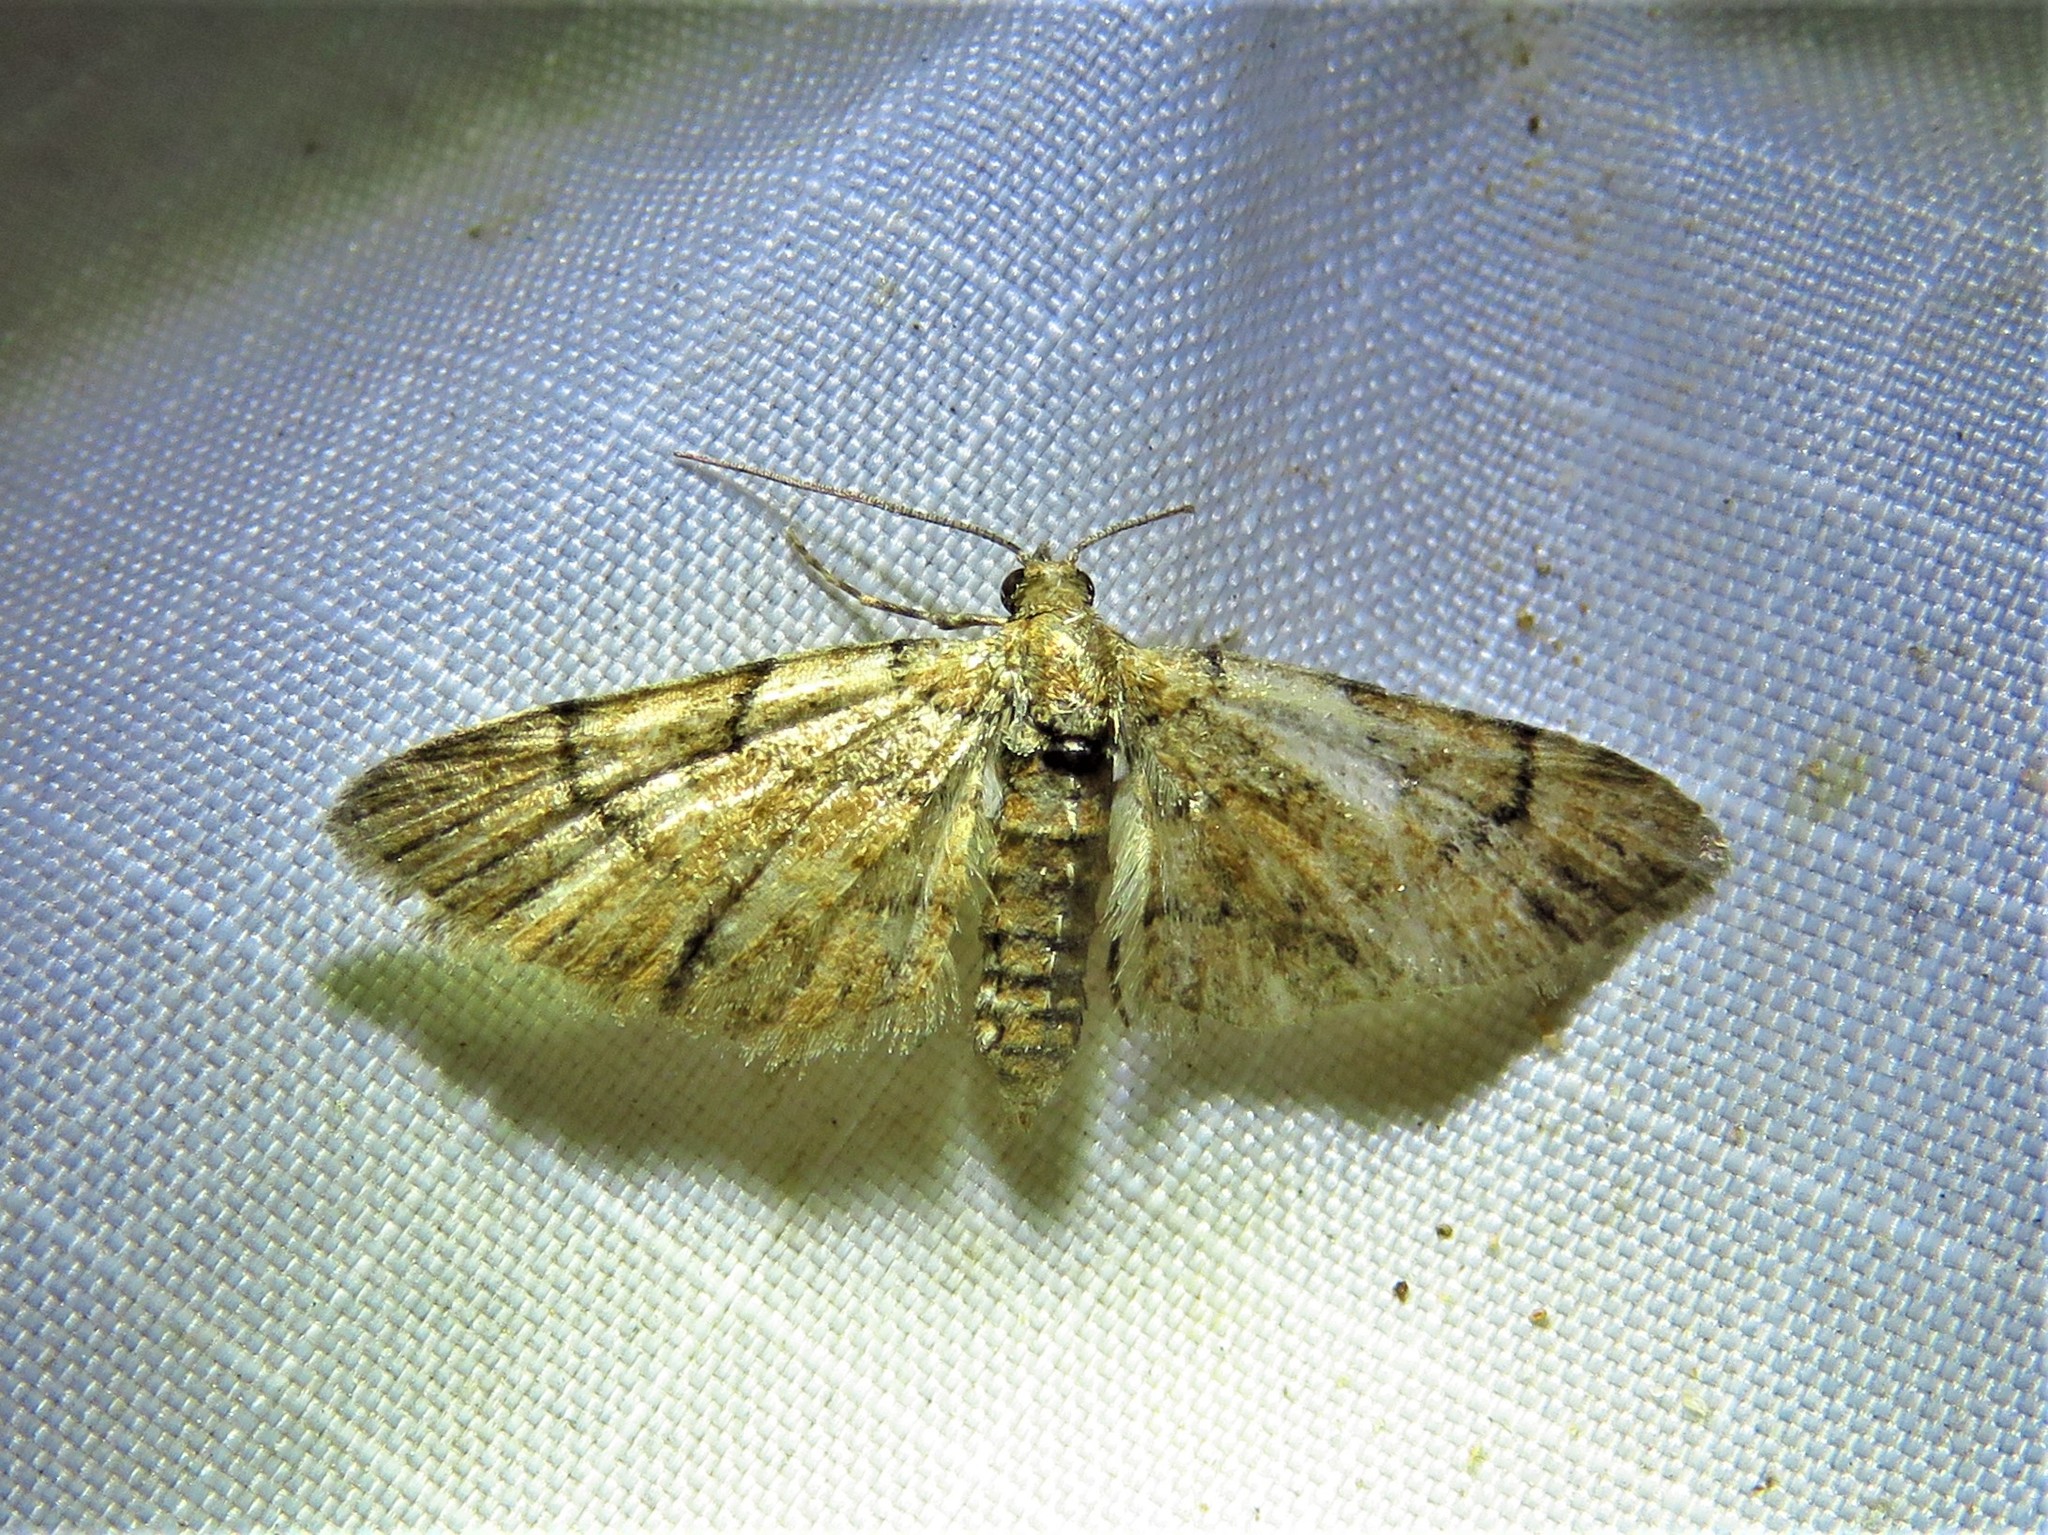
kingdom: Animalia
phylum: Arthropoda
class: Insecta
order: Lepidoptera
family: Geometridae
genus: Eupithecia
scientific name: Eupithecia peckorum
